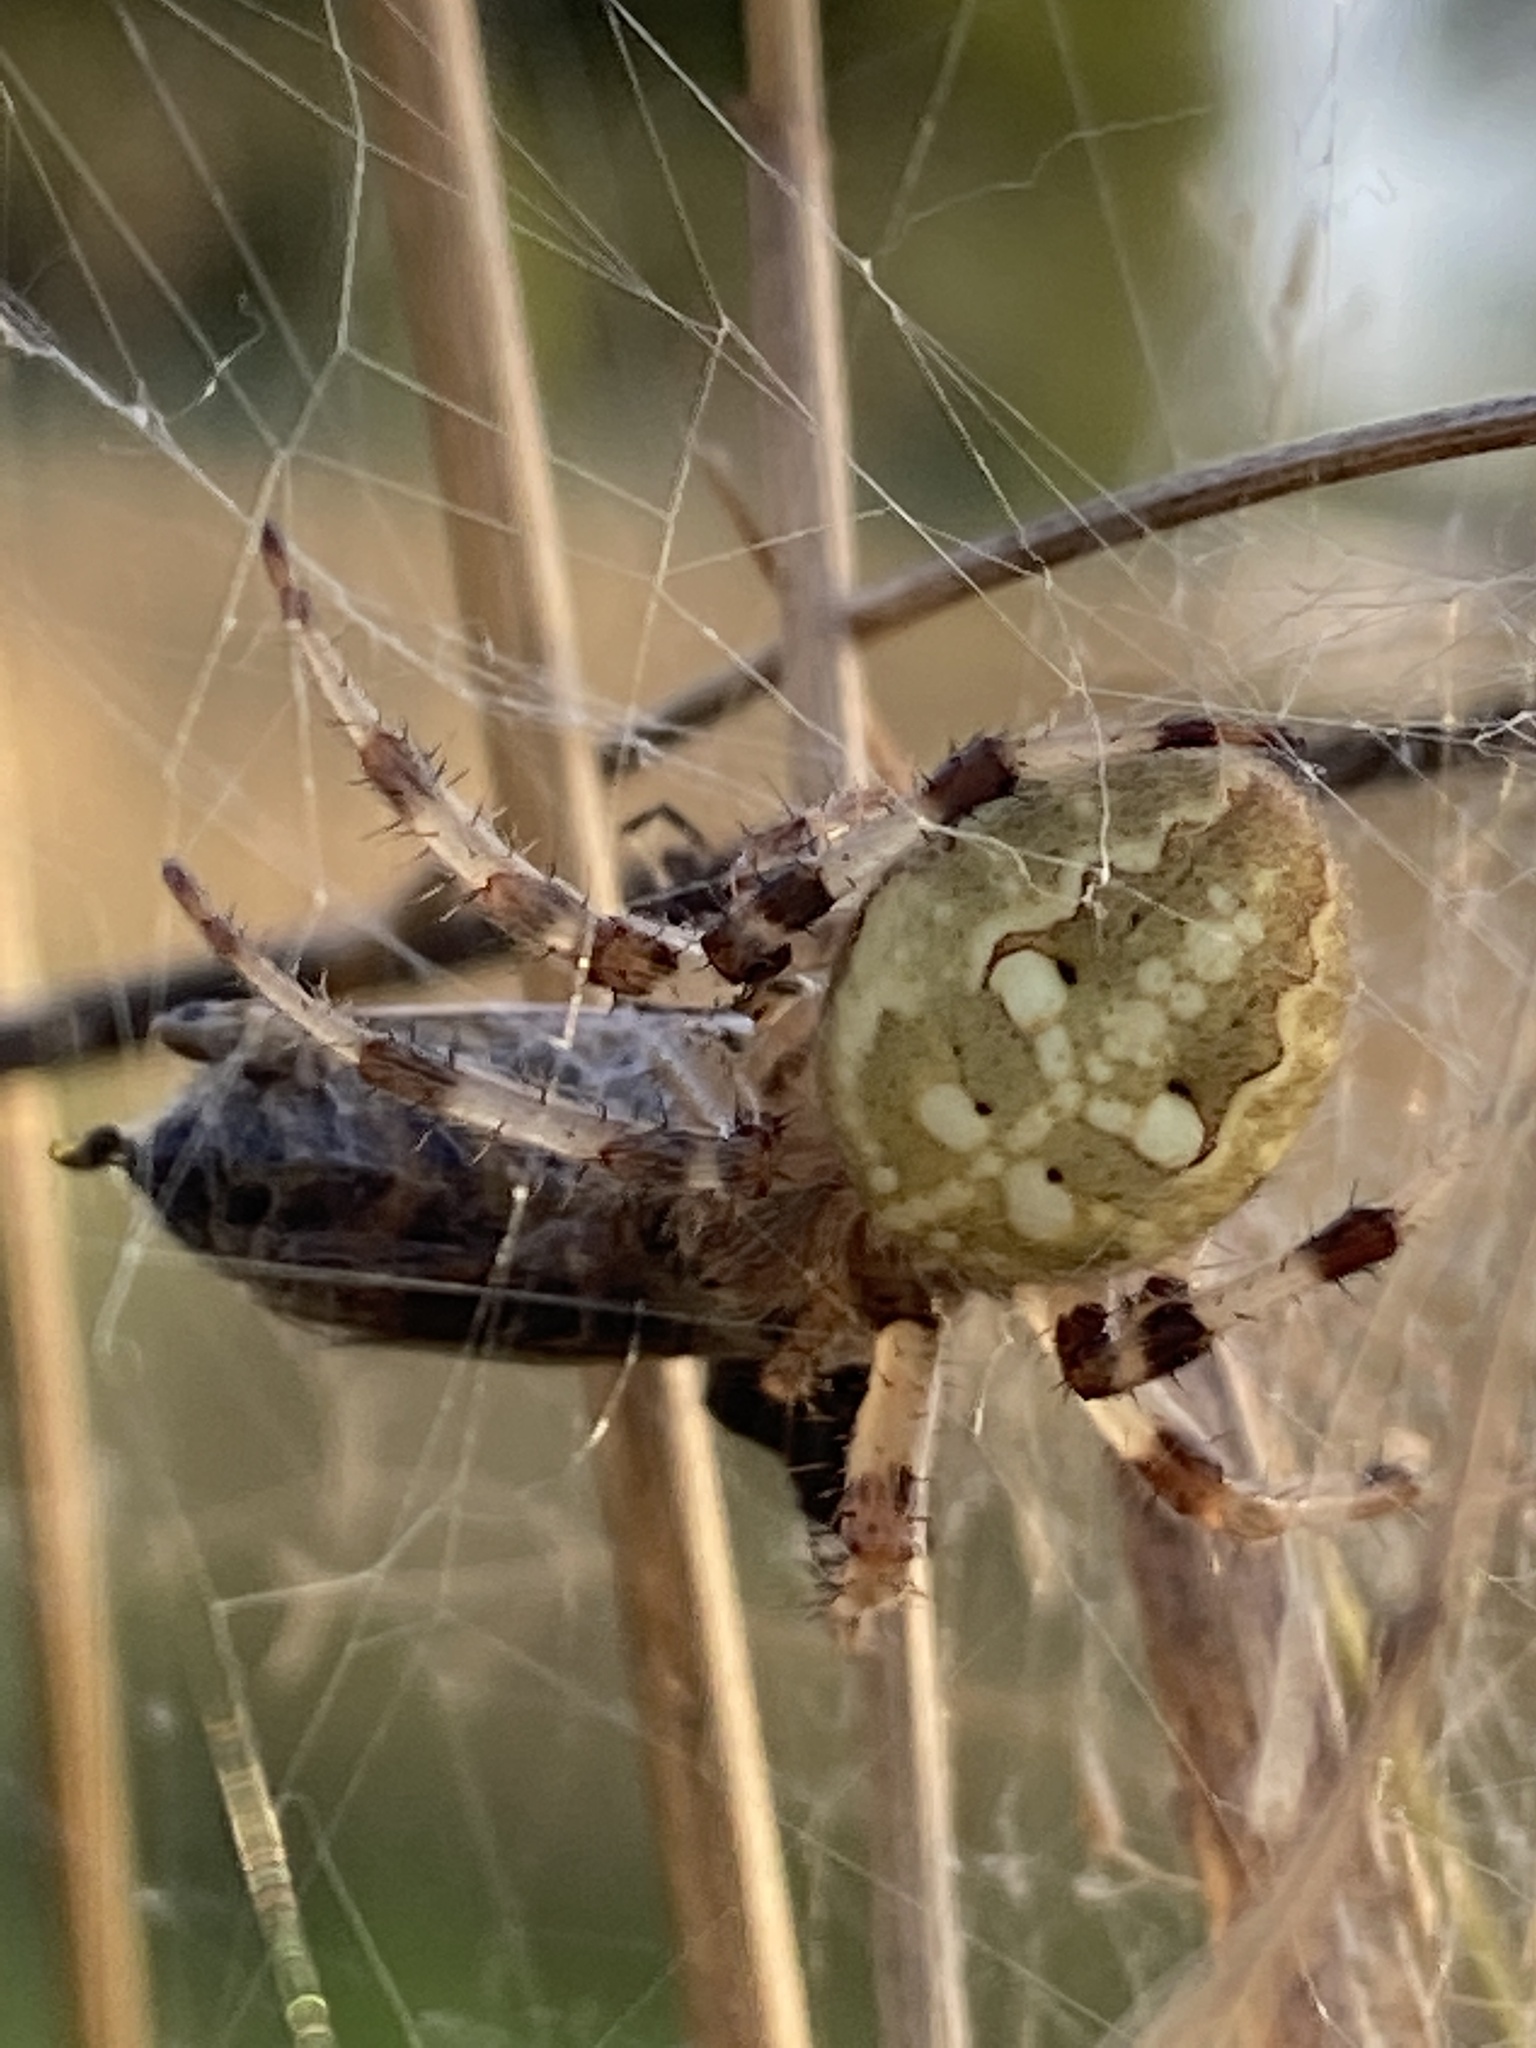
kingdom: Animalia
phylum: Arthropoda
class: Arachnida
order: Araneae
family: Araneidae
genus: Araneus
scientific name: Araneus quadratus
